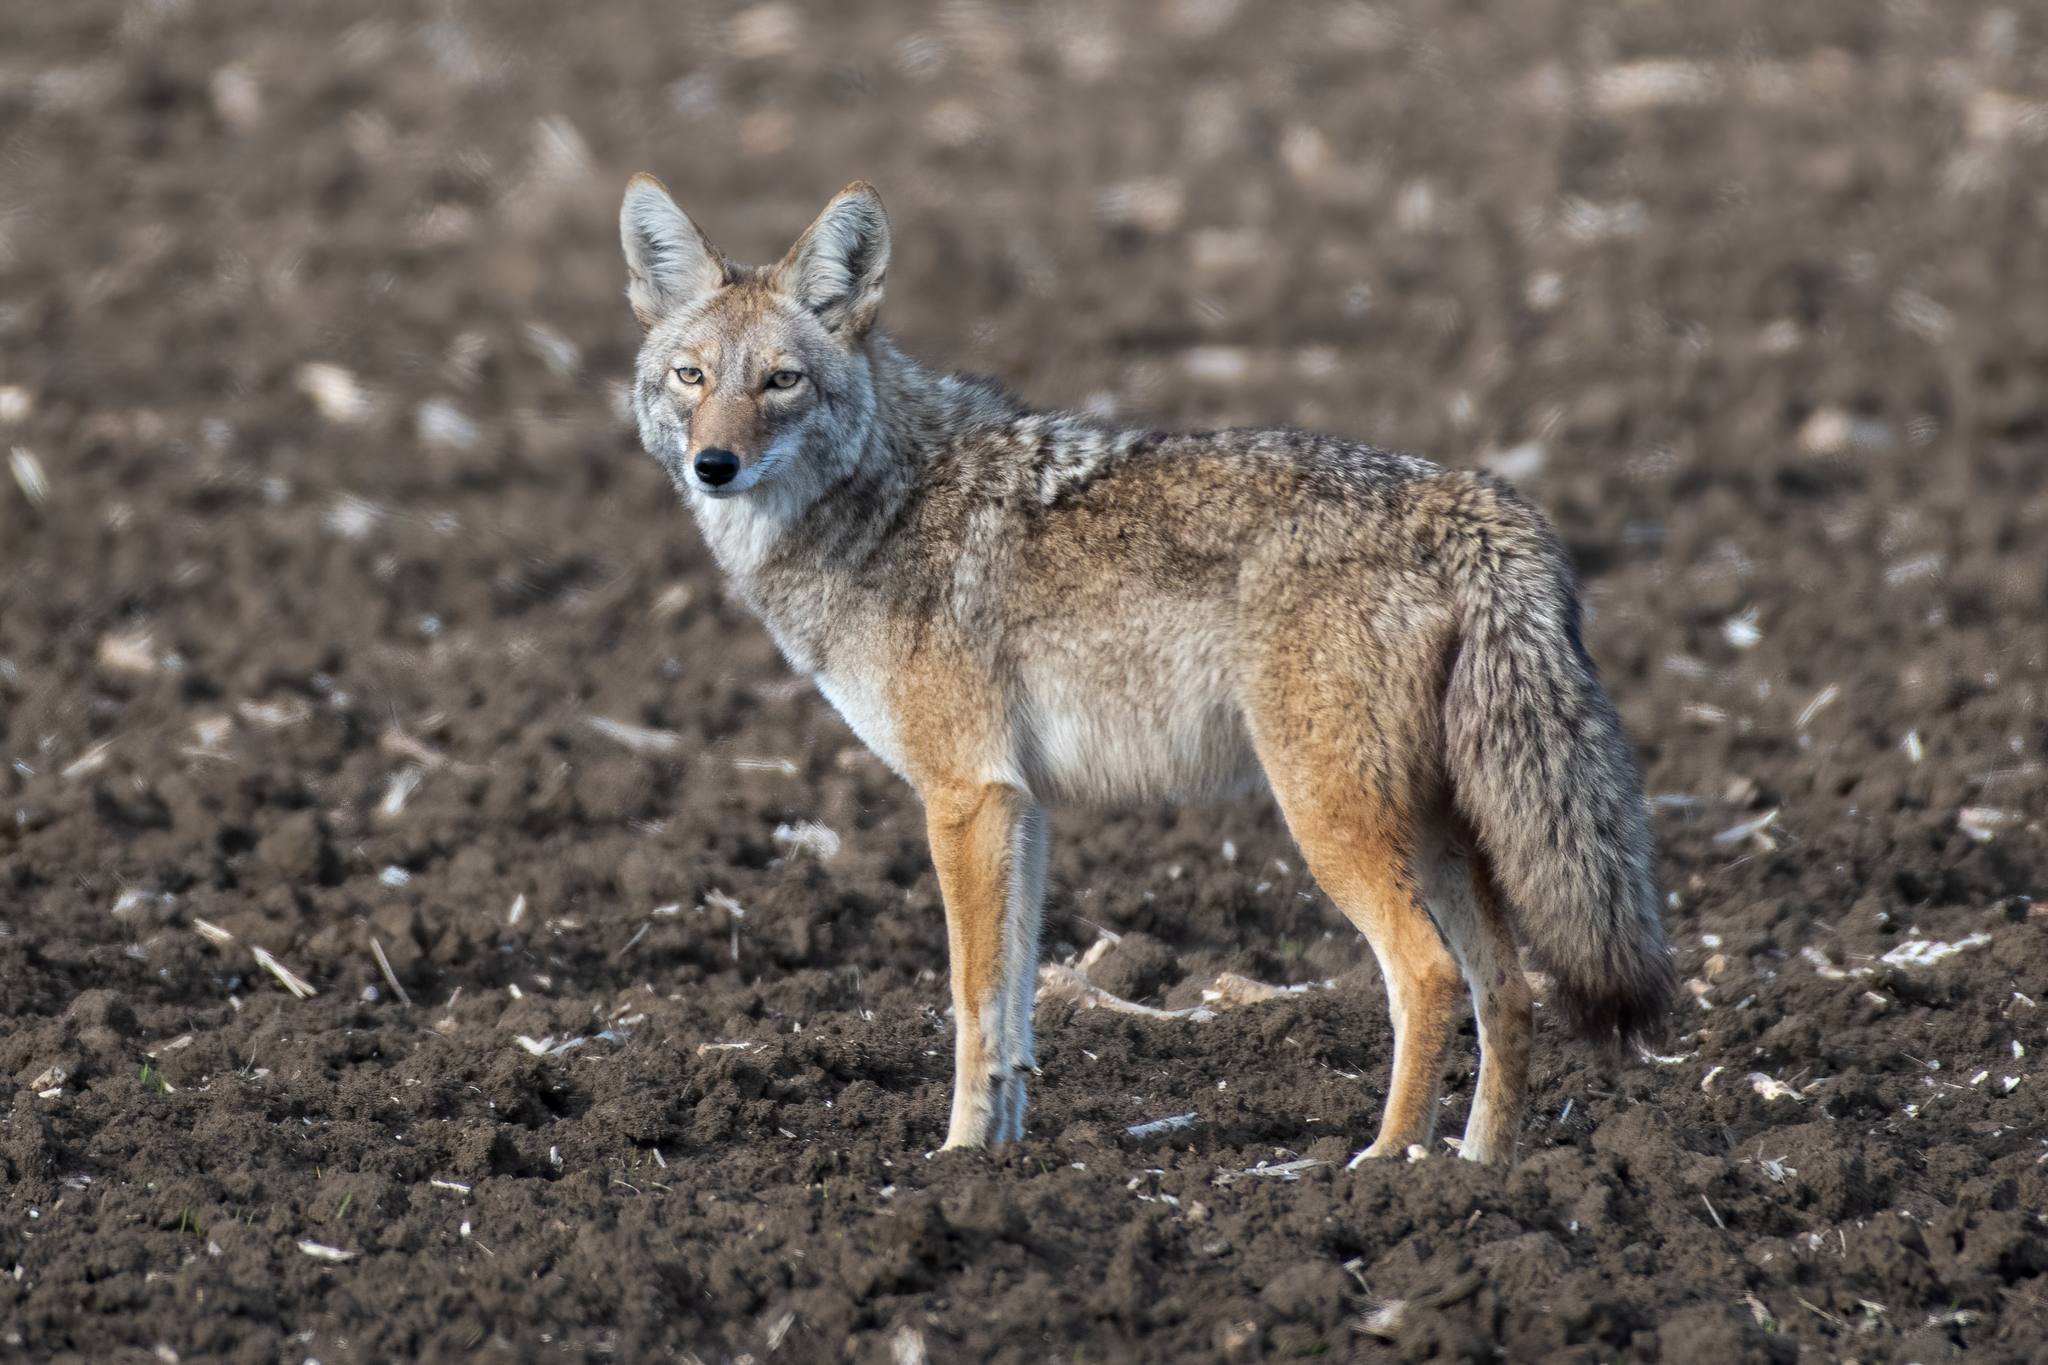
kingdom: Animalia
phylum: Chordata
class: Mammalia
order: Carnivora
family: Canidae
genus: Canis
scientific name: Canis latrans
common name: Coyote
